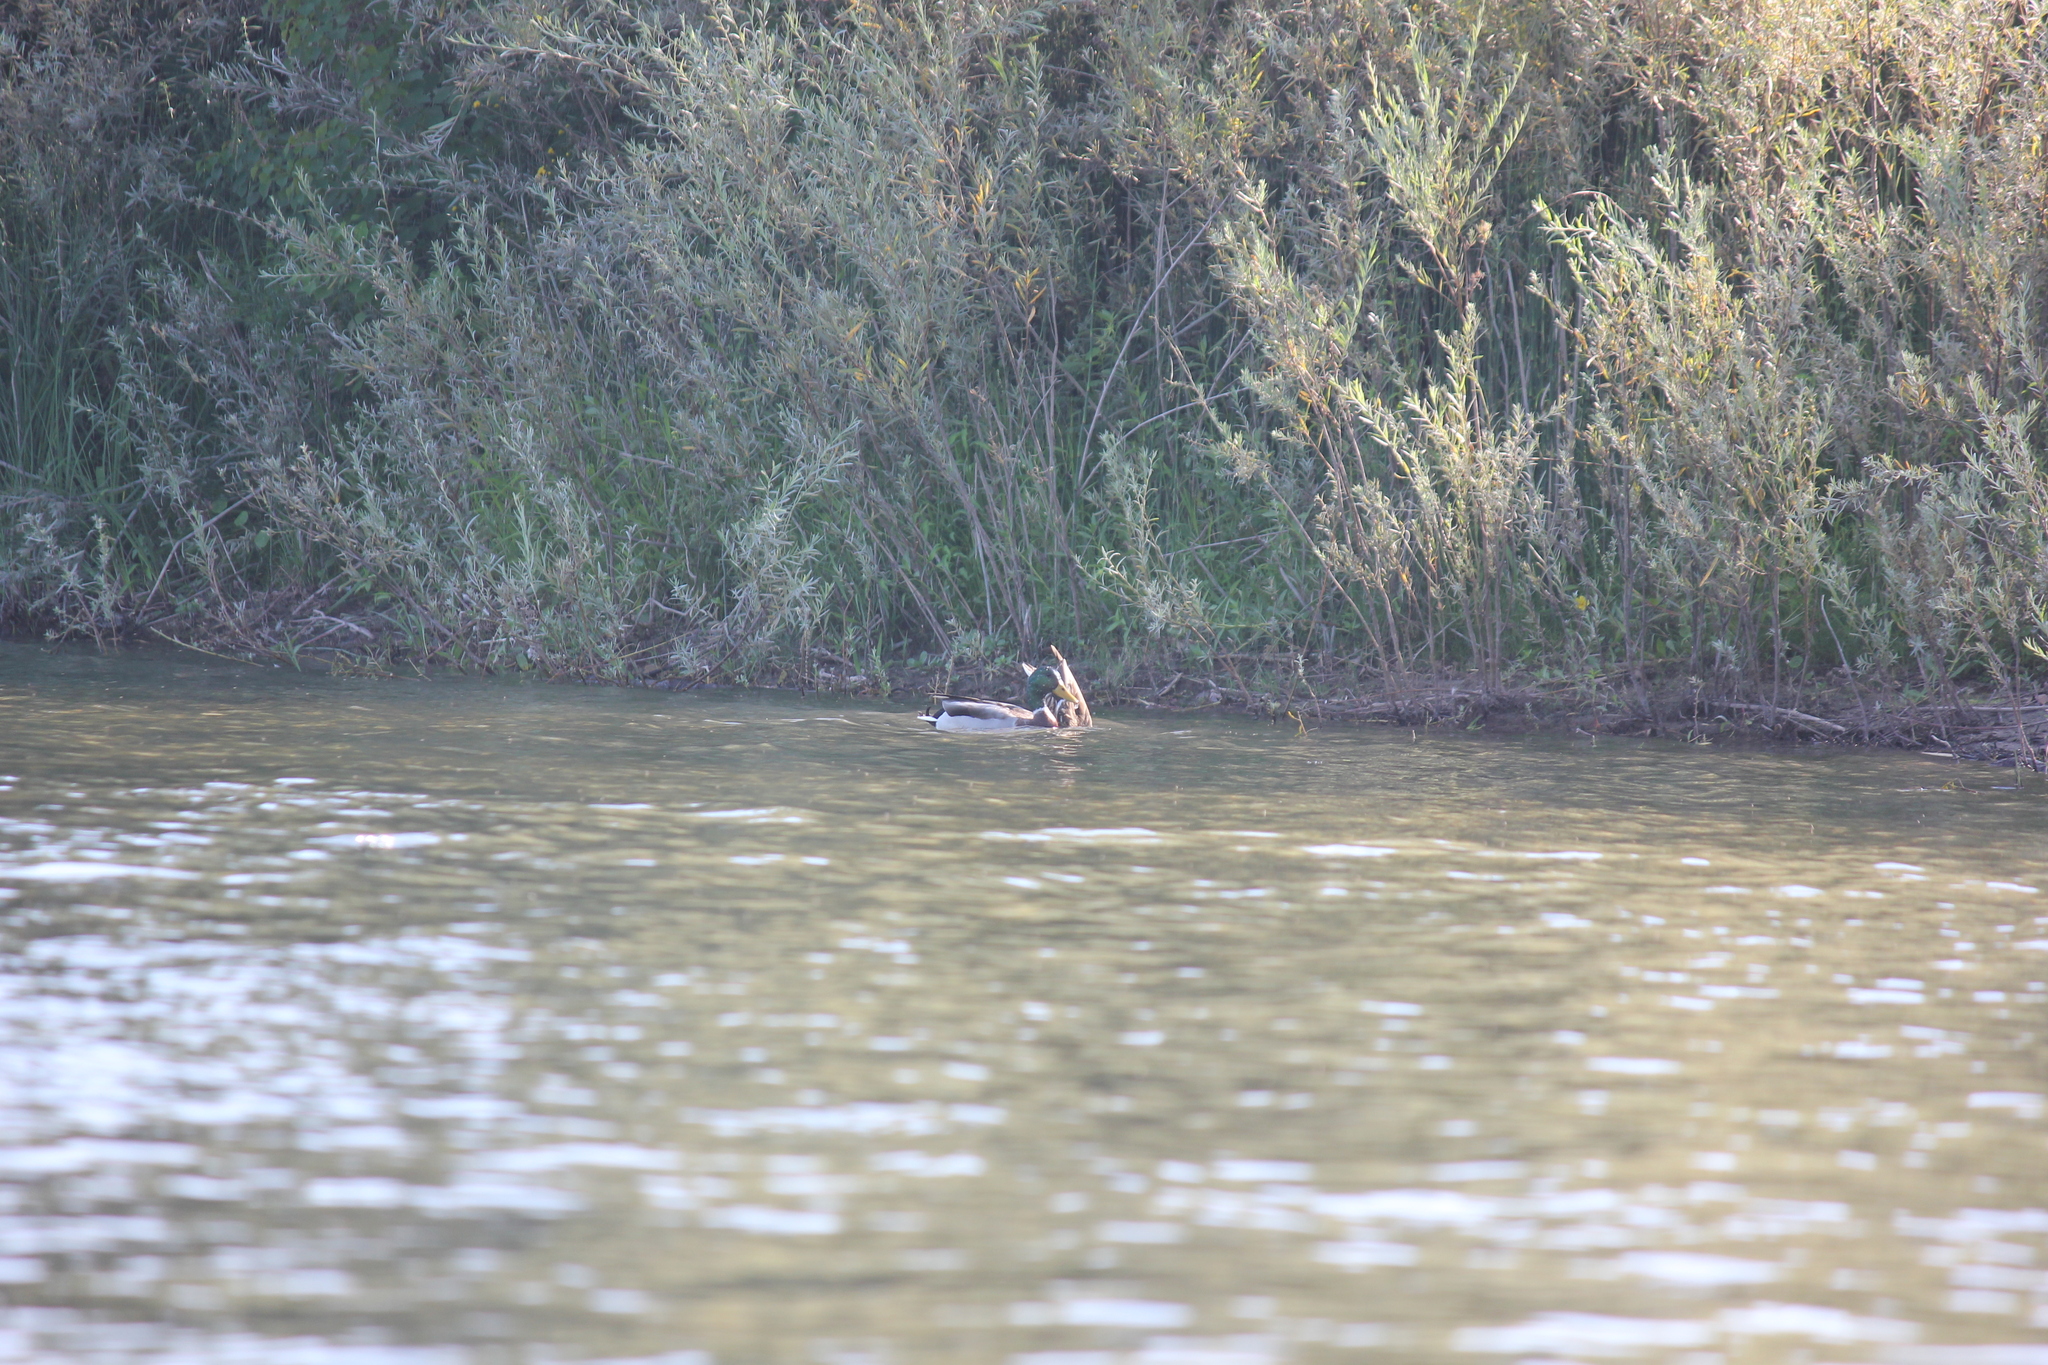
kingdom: Animalia
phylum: Chordata
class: Aves
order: Anseriformes
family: Anatidae
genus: Anas
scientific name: Anas platyrhynchos
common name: Mallard
